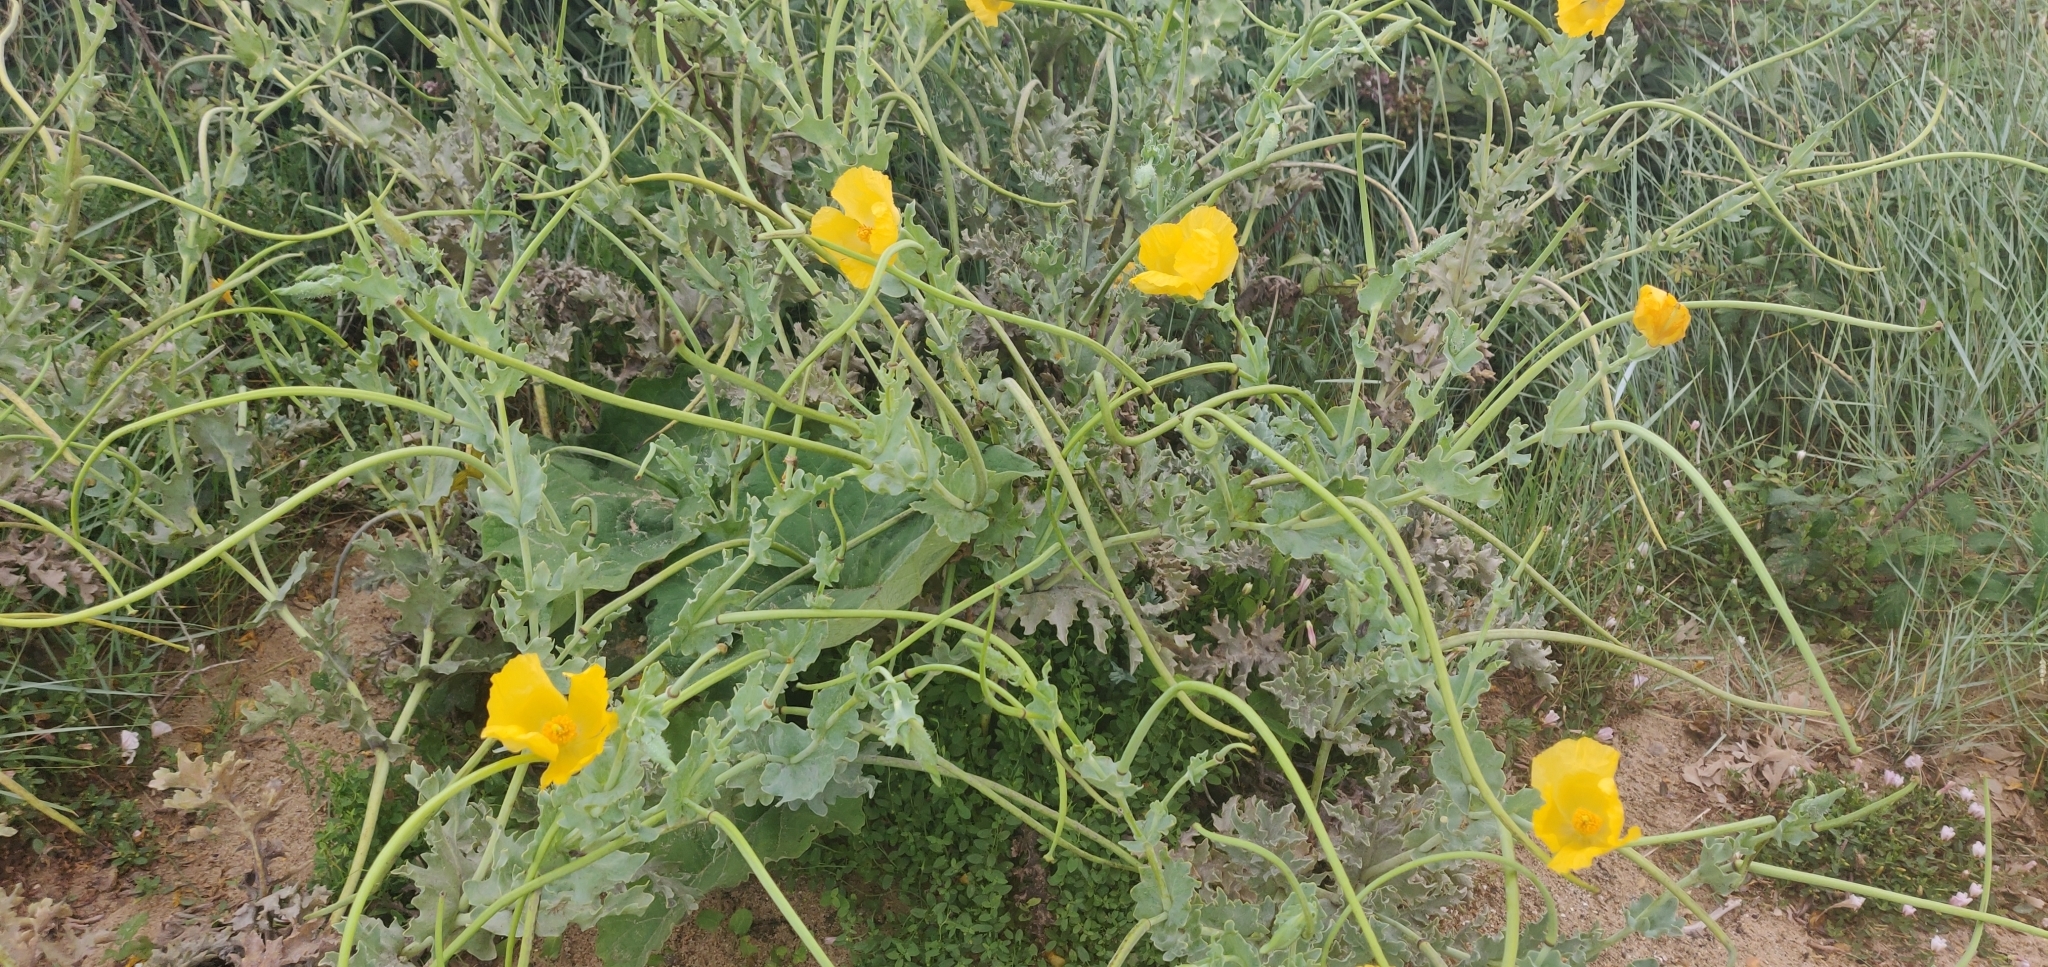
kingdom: Plantae
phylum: Tracheophyta
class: Magnoliopsida
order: Ranunculales
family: Papaveraceae
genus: Glaucium
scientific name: Glaucium flavum
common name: Yellow horned-poppy
